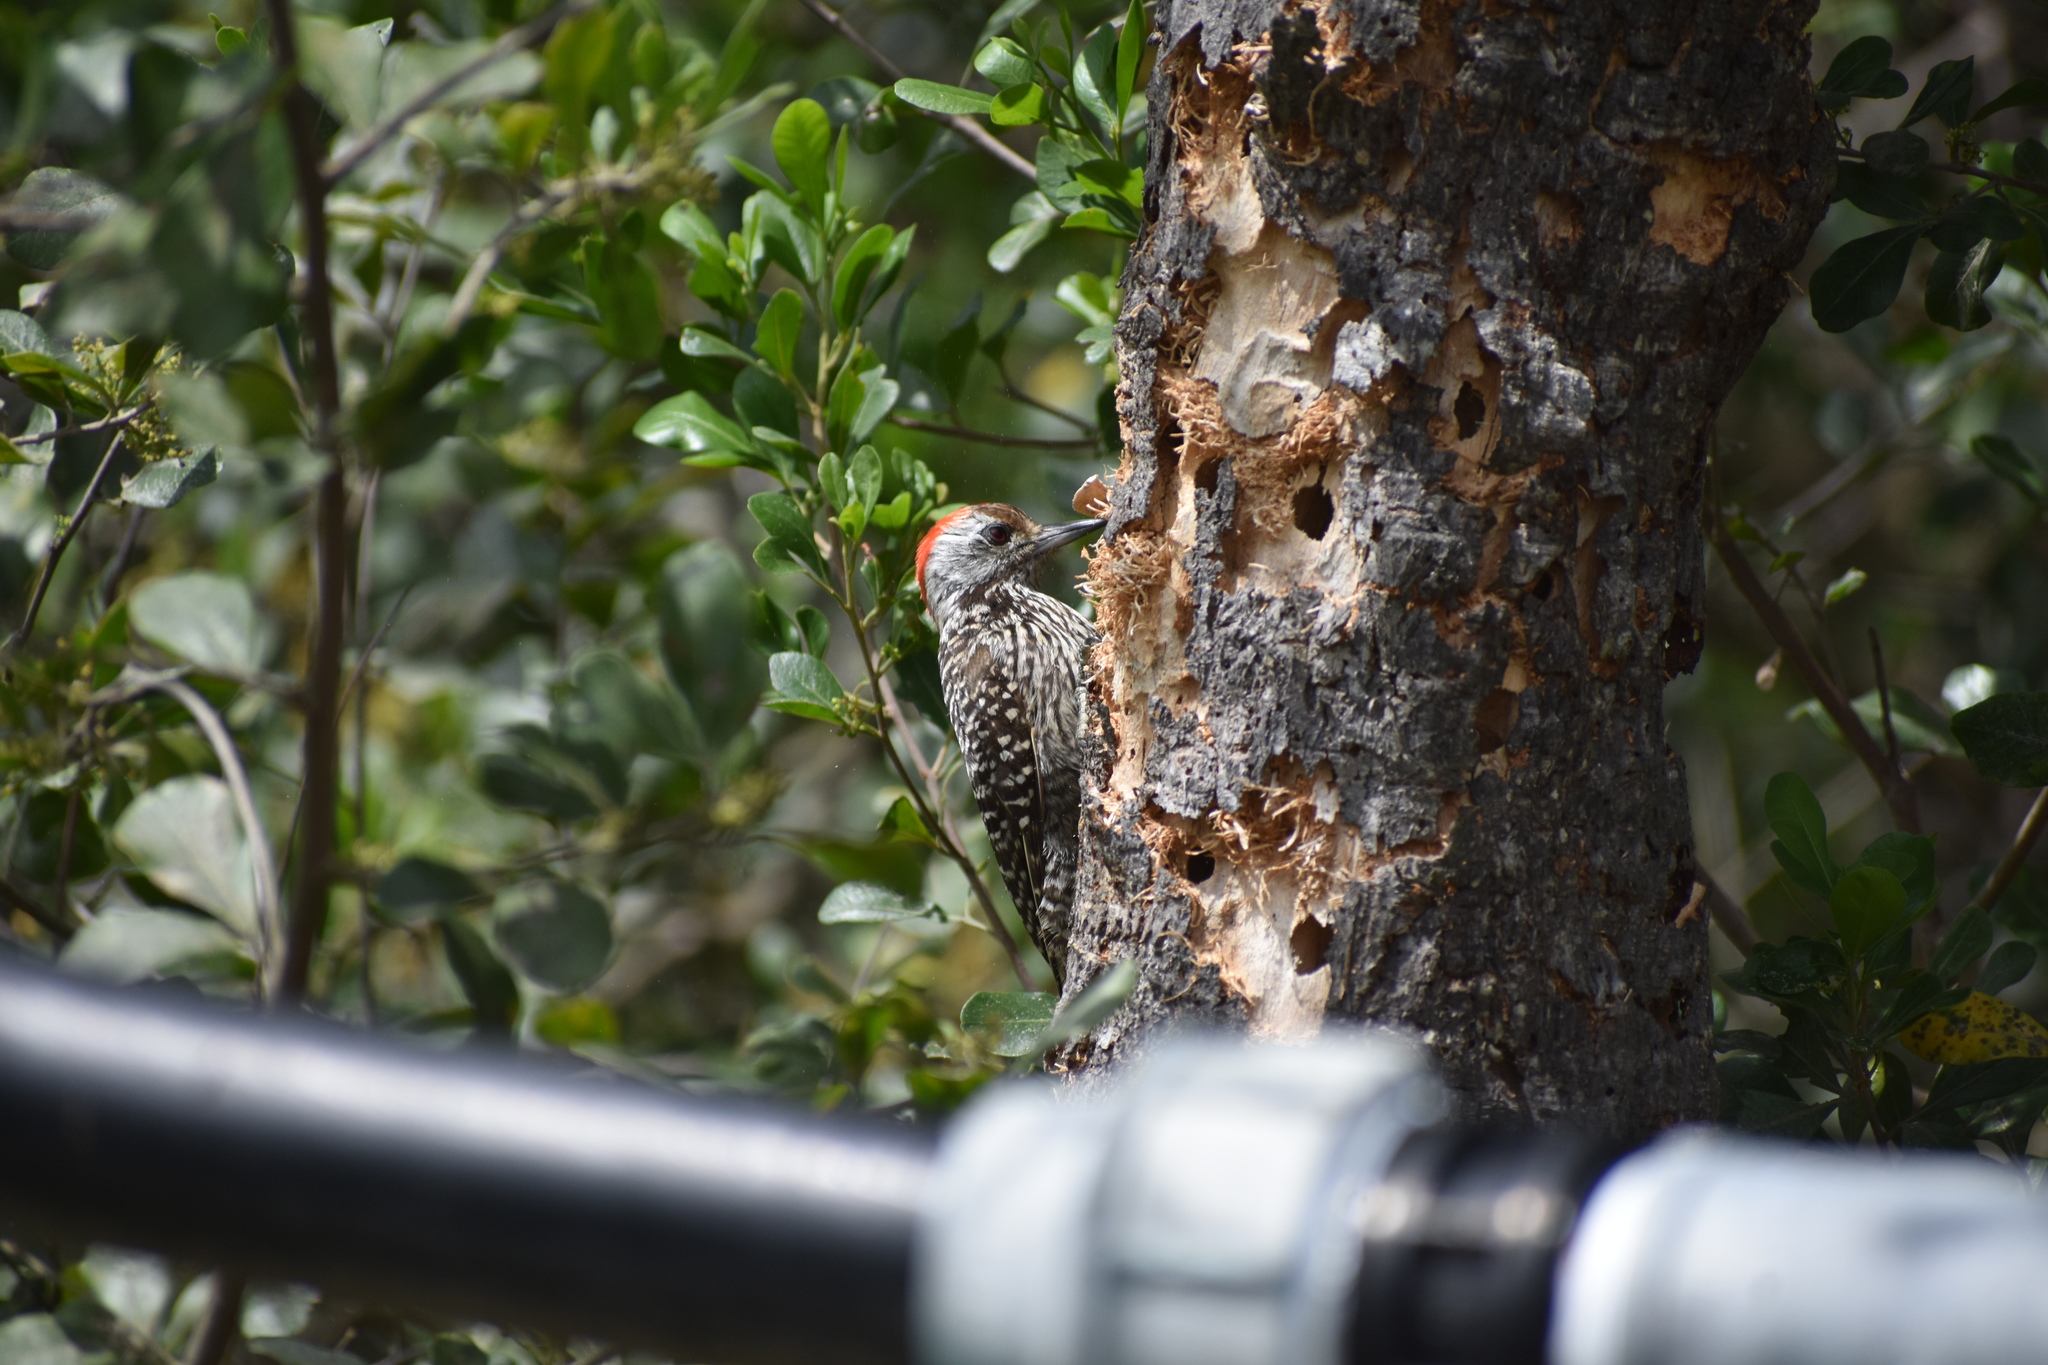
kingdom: Animalia
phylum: Chordata
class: Aves
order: Piciformes
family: Picidae
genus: Dendropicos
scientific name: Dendropicos fuscescens
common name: Cardinal woodpecker
